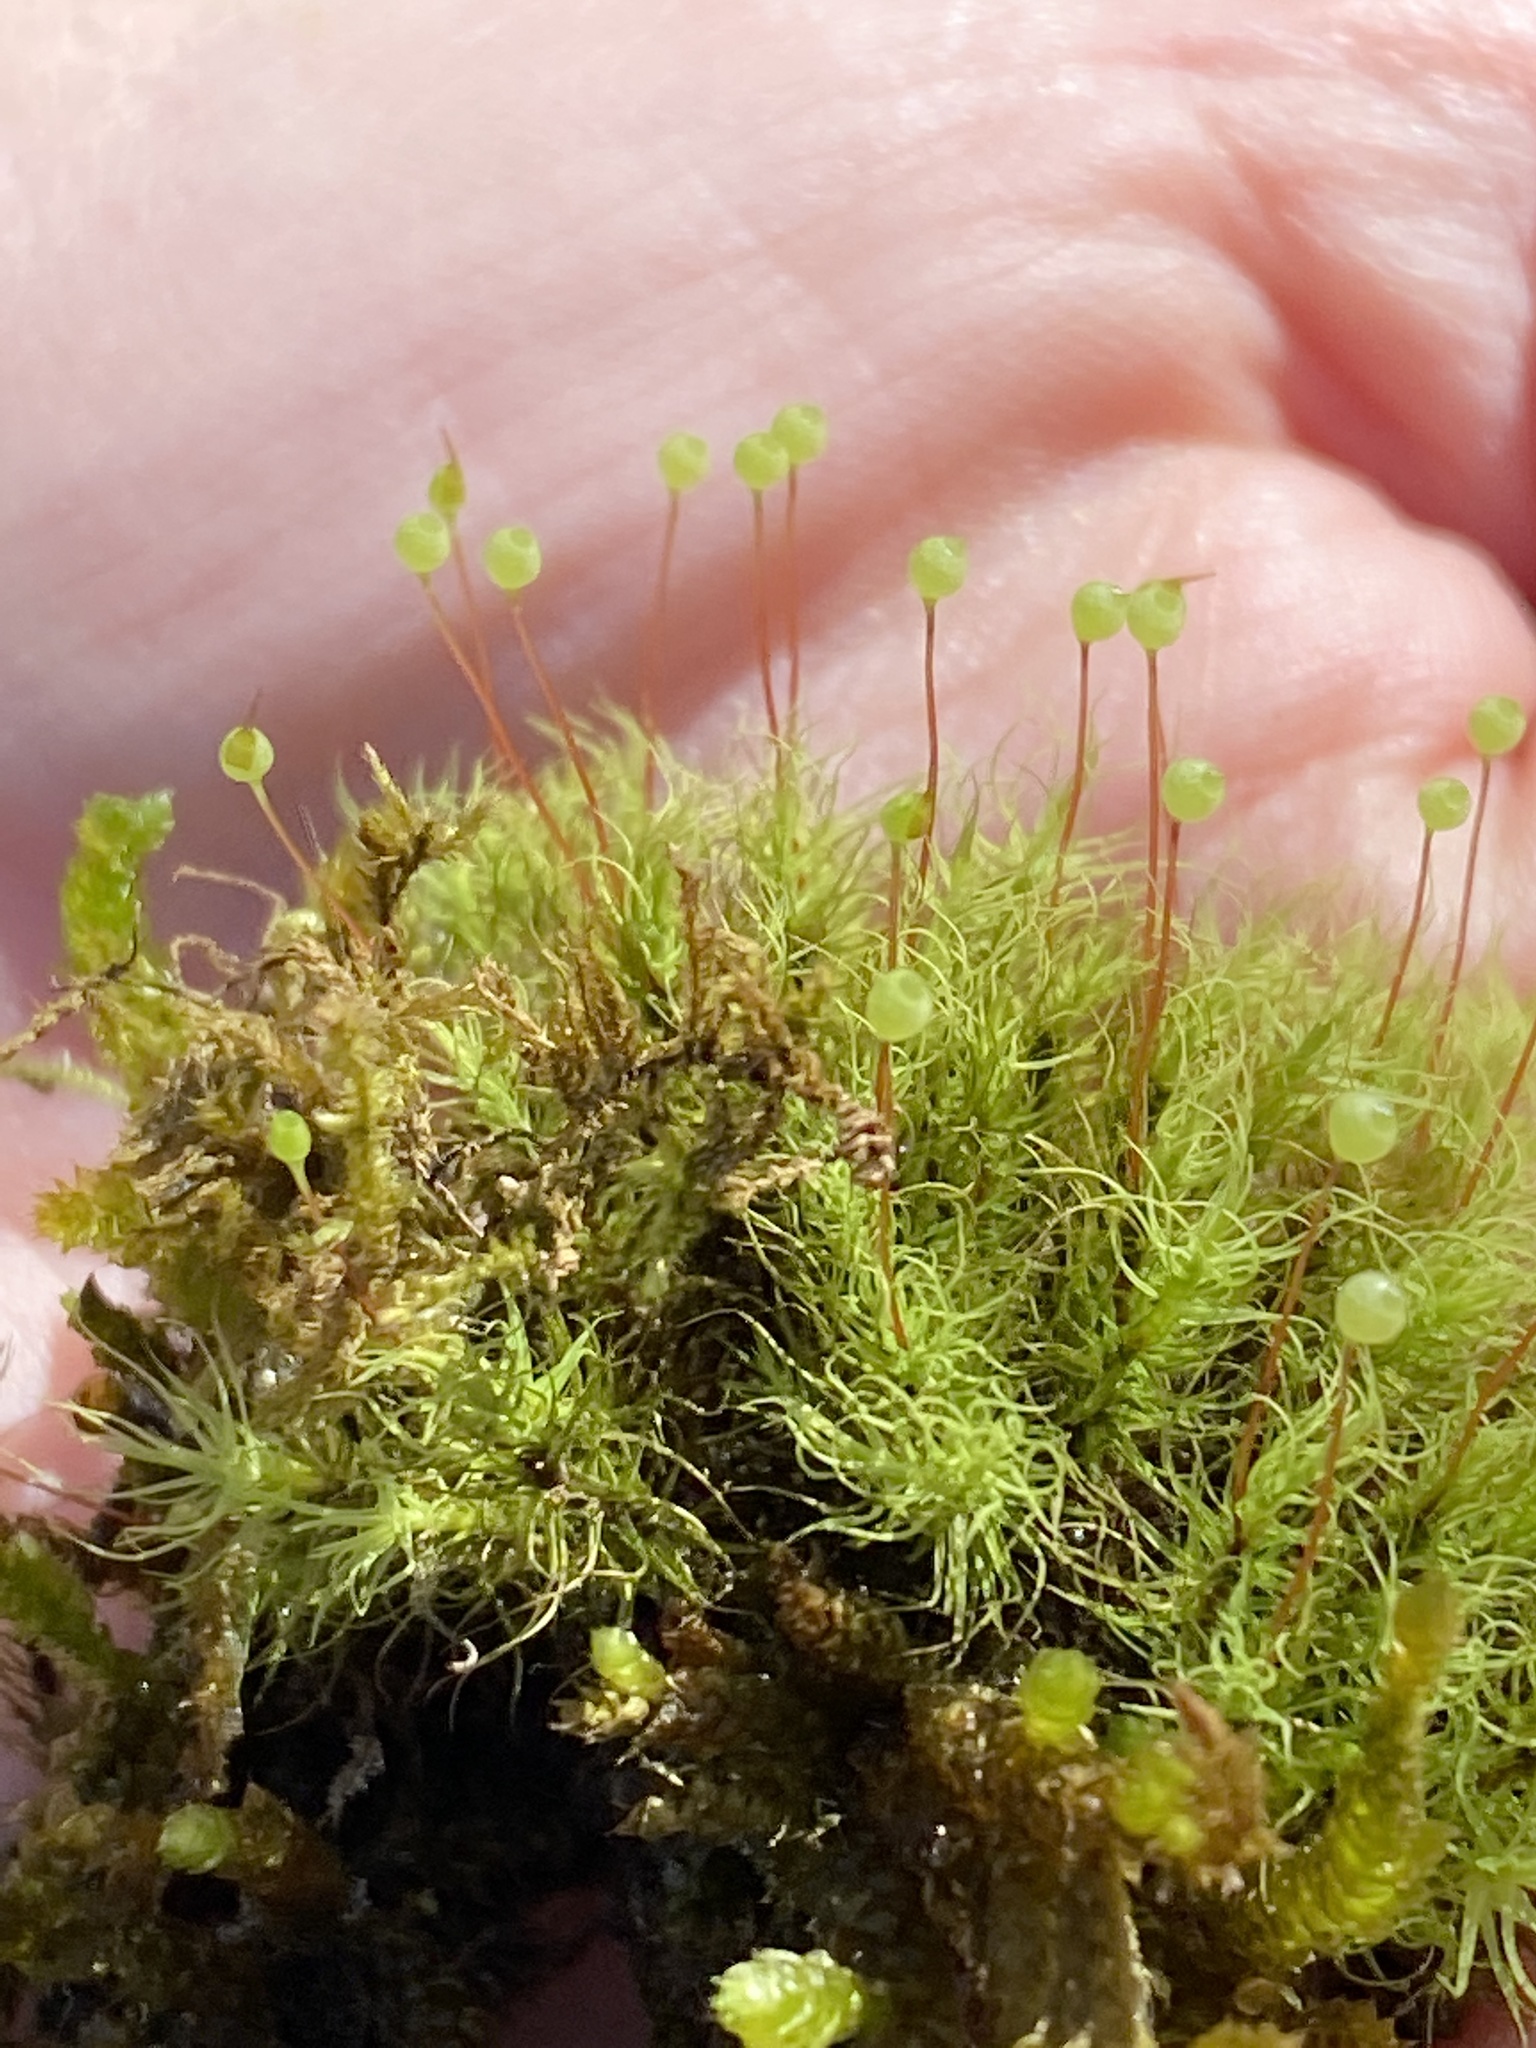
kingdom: Plantae
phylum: Bryophyta
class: Bryopsida
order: Bartramiales
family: Bartramiaceae
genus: Bartramia
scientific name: Bartramia ithyphylla
